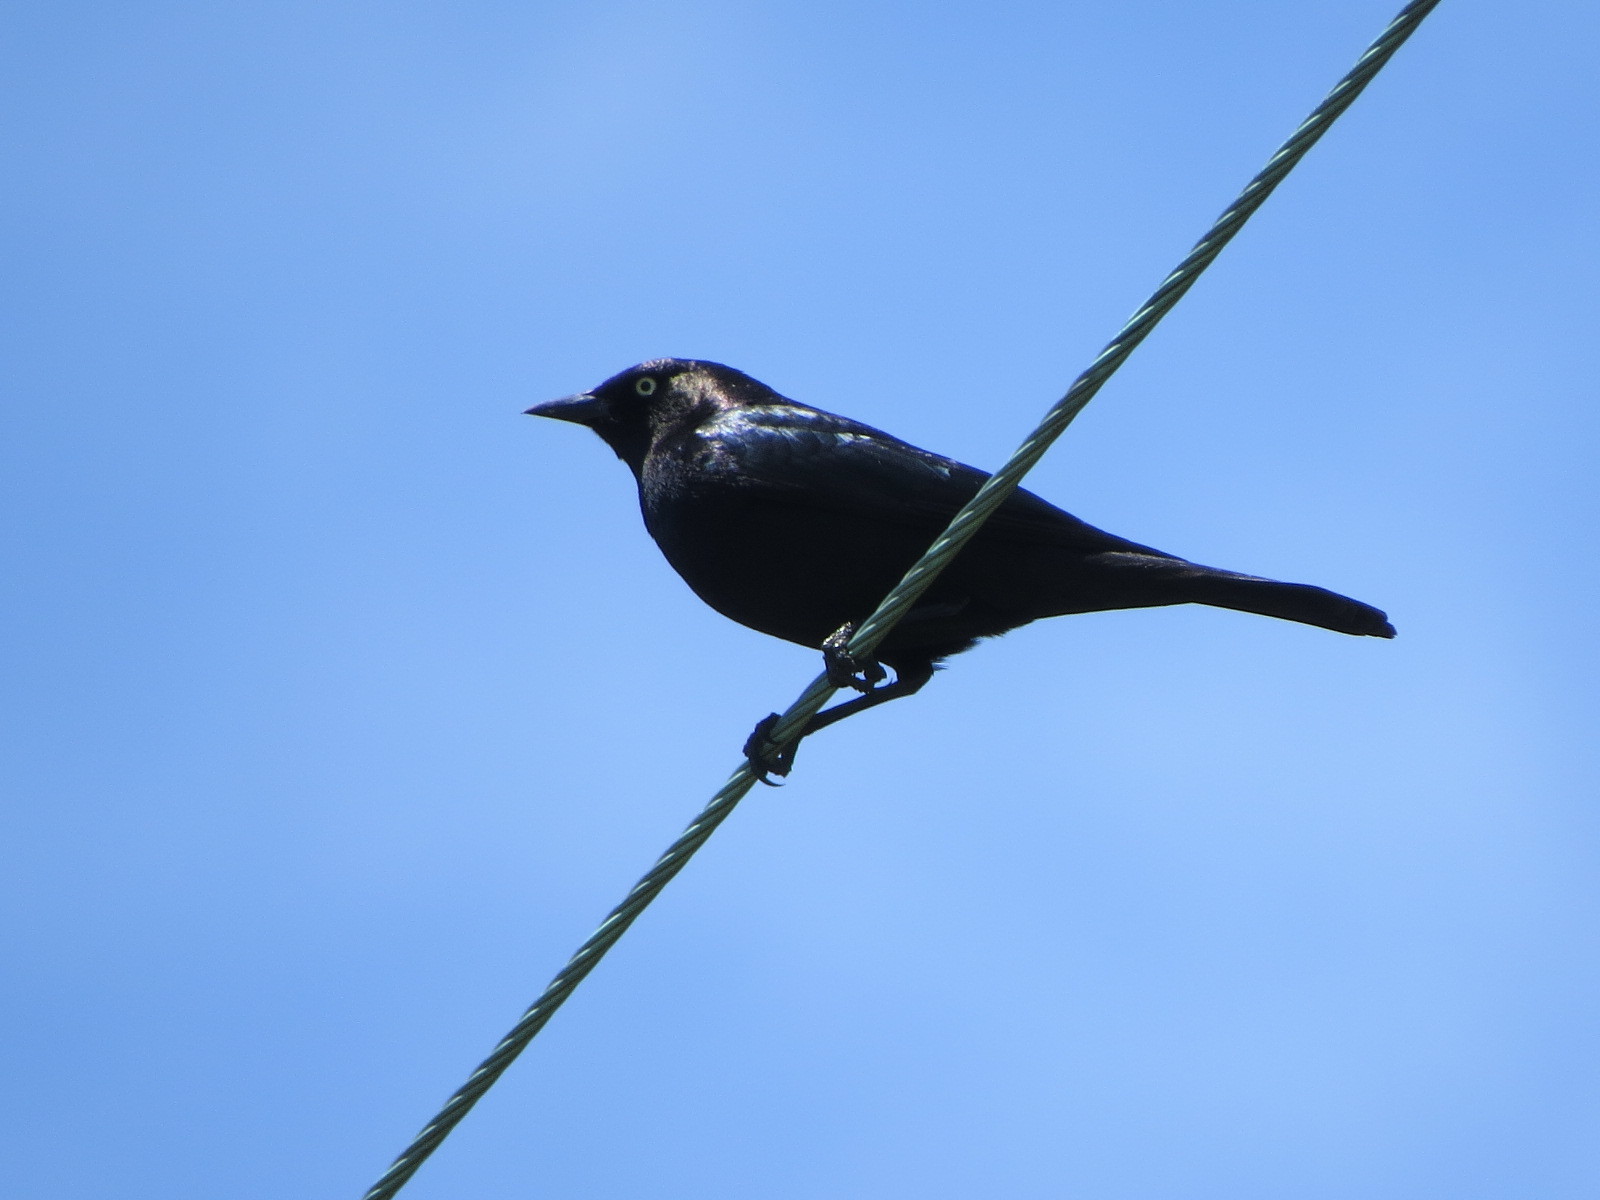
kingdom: Animalia
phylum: Chordata
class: Aves
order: Passeriformes
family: Icteridae
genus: Euphagus
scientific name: Euphagus cyanocephalus
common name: Brewer's blackbird
